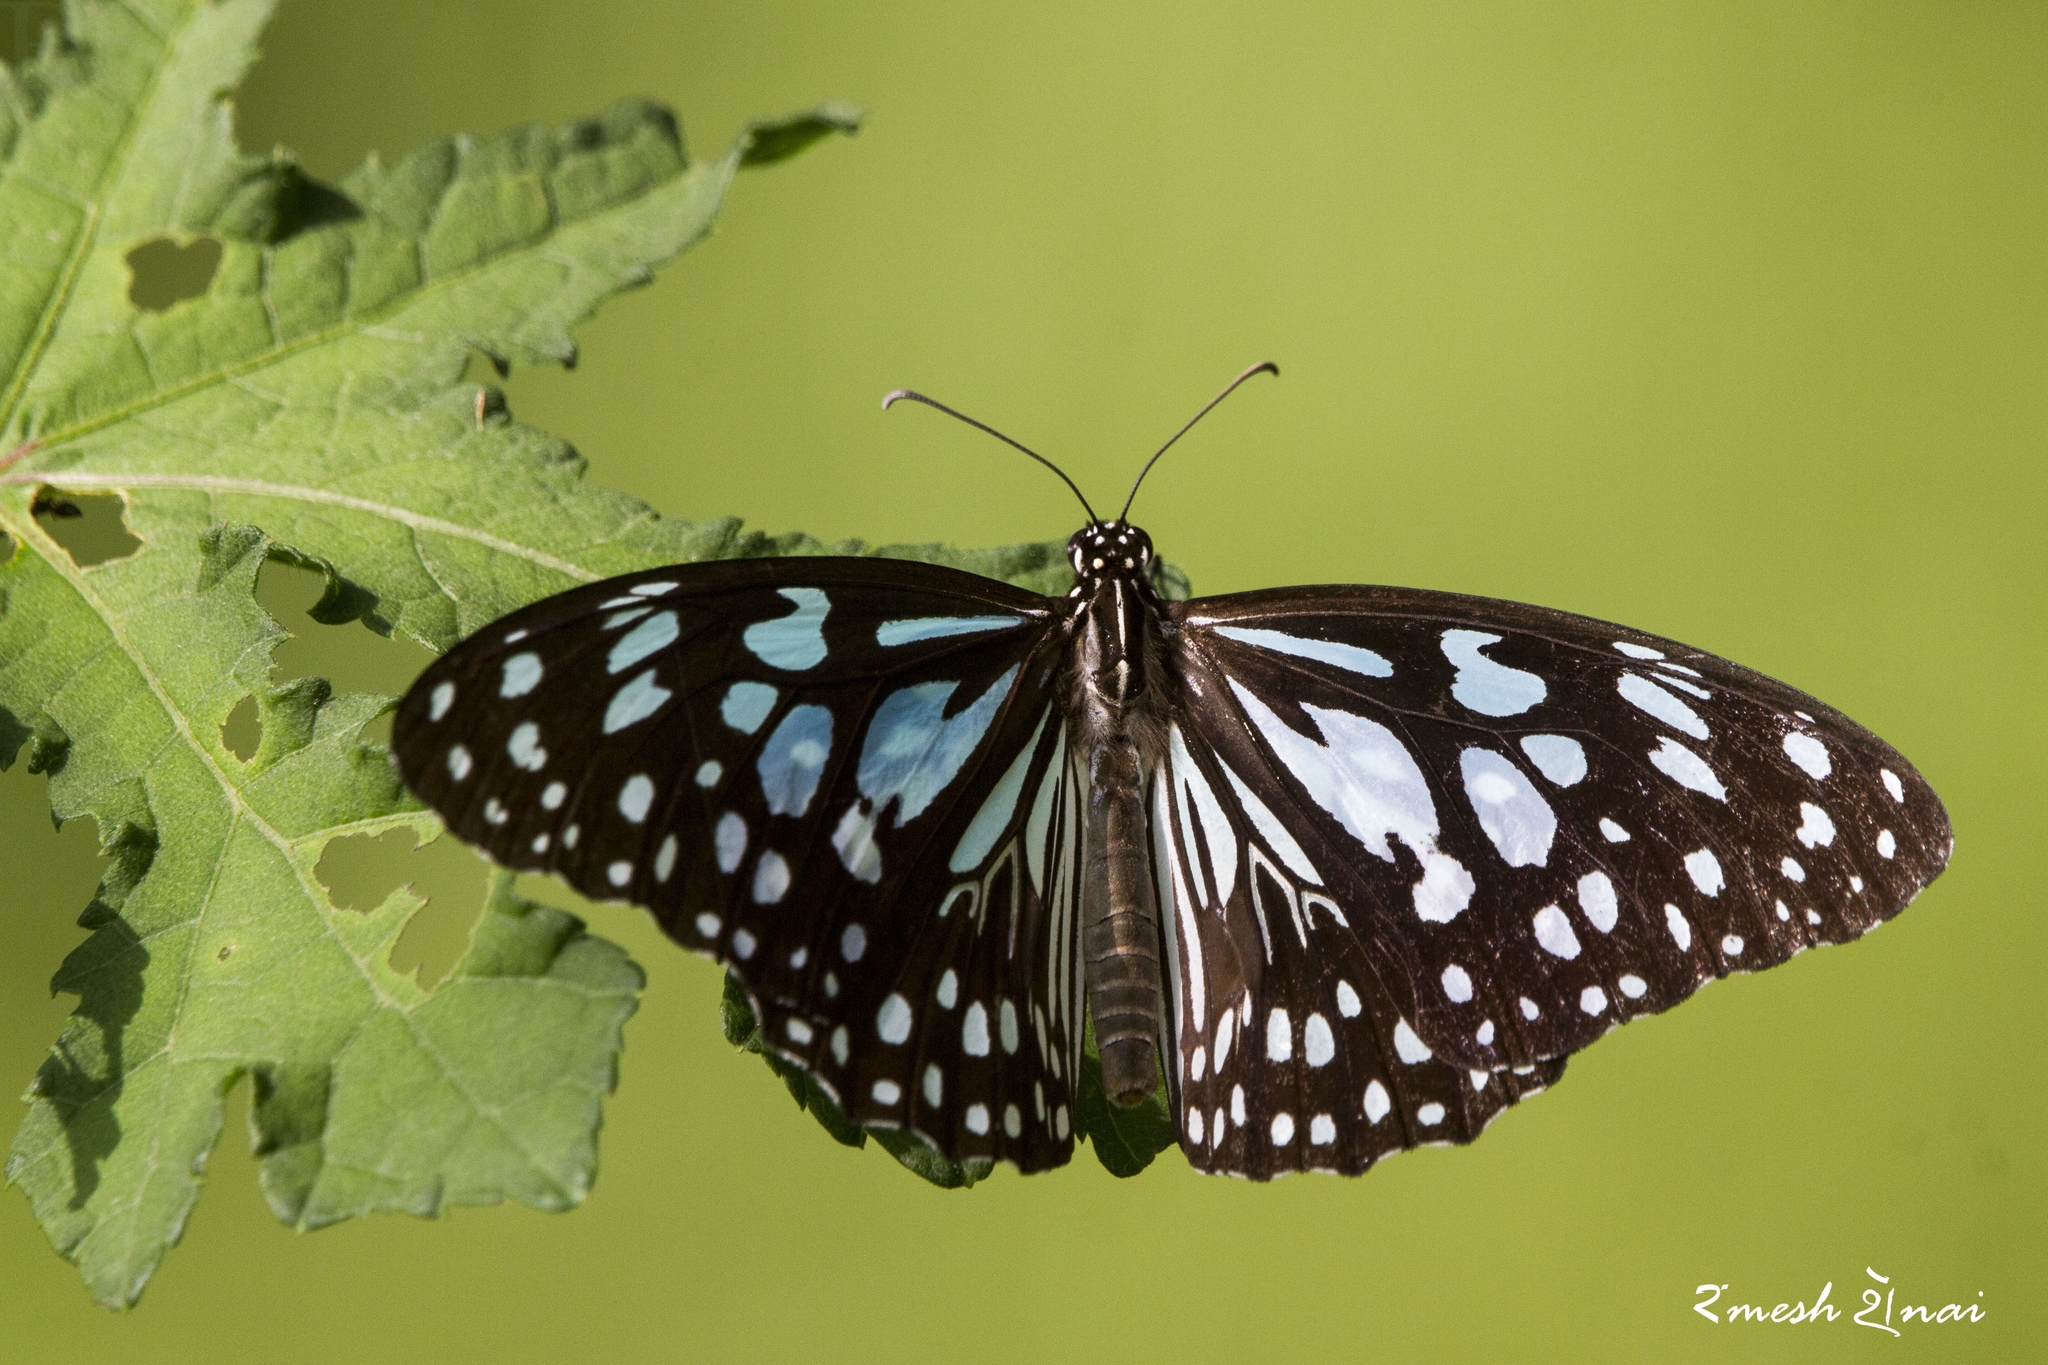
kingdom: Animalia
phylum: Arthropoda
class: Insecta
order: Lepidoptera
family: Nymphalidae
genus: Tirumala
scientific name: Tirumala limniace
